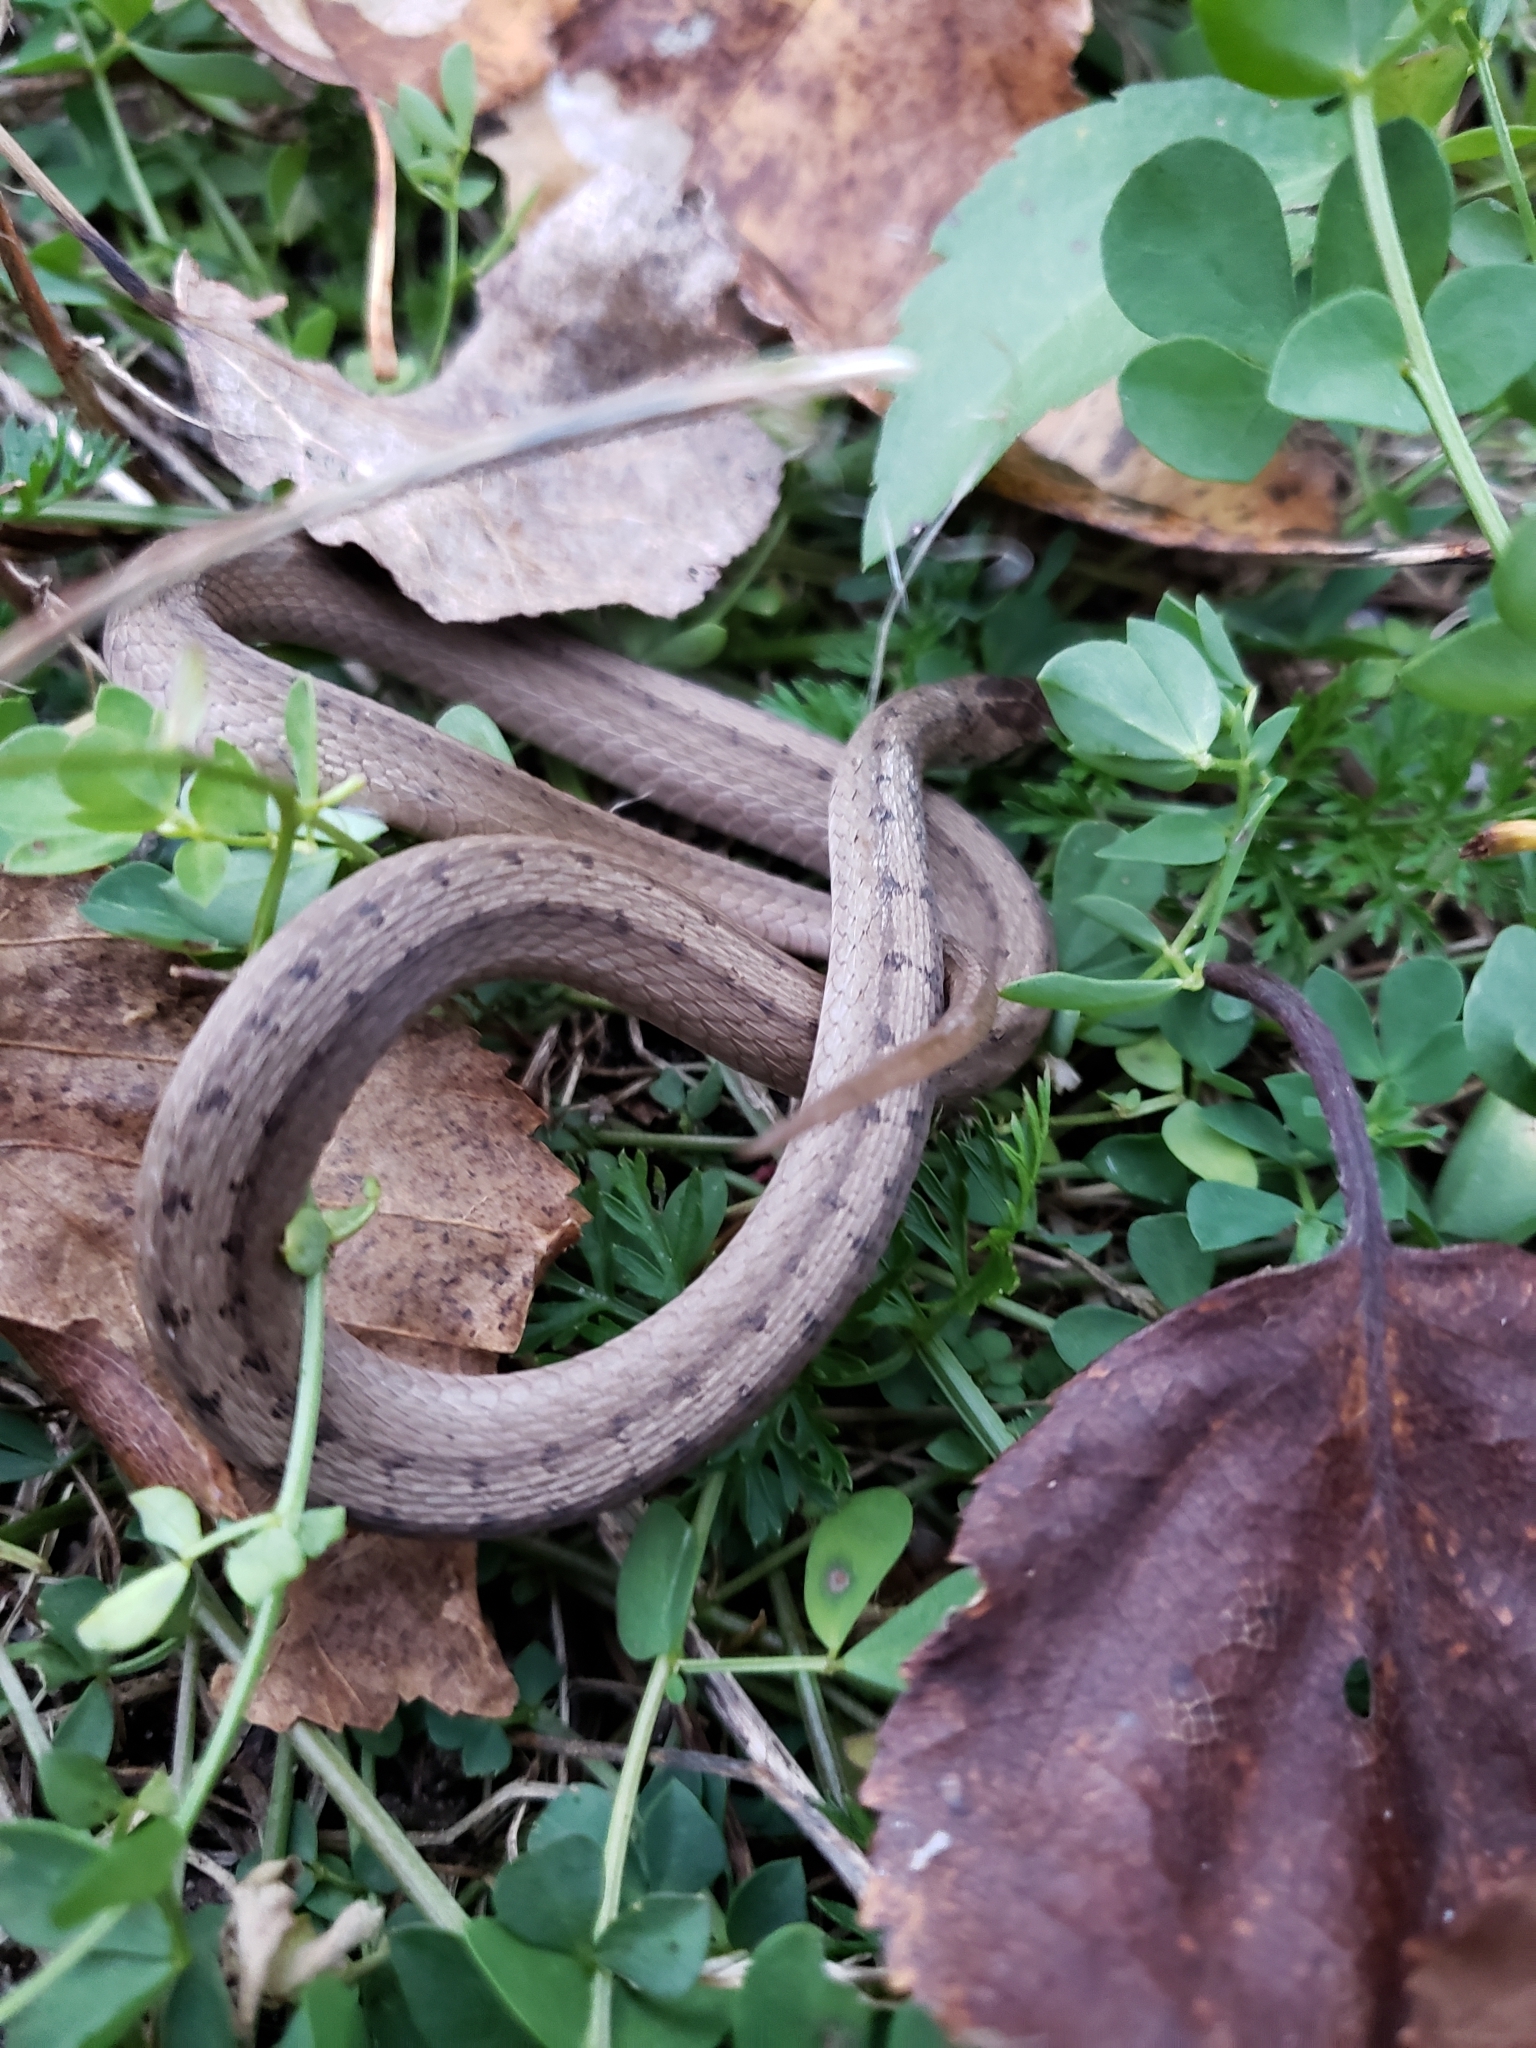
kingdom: Animalia
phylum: Chordata
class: Squamata
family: Colubridae
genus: Storeria
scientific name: Storeria dekayi
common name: (dekay’s) brown snake
